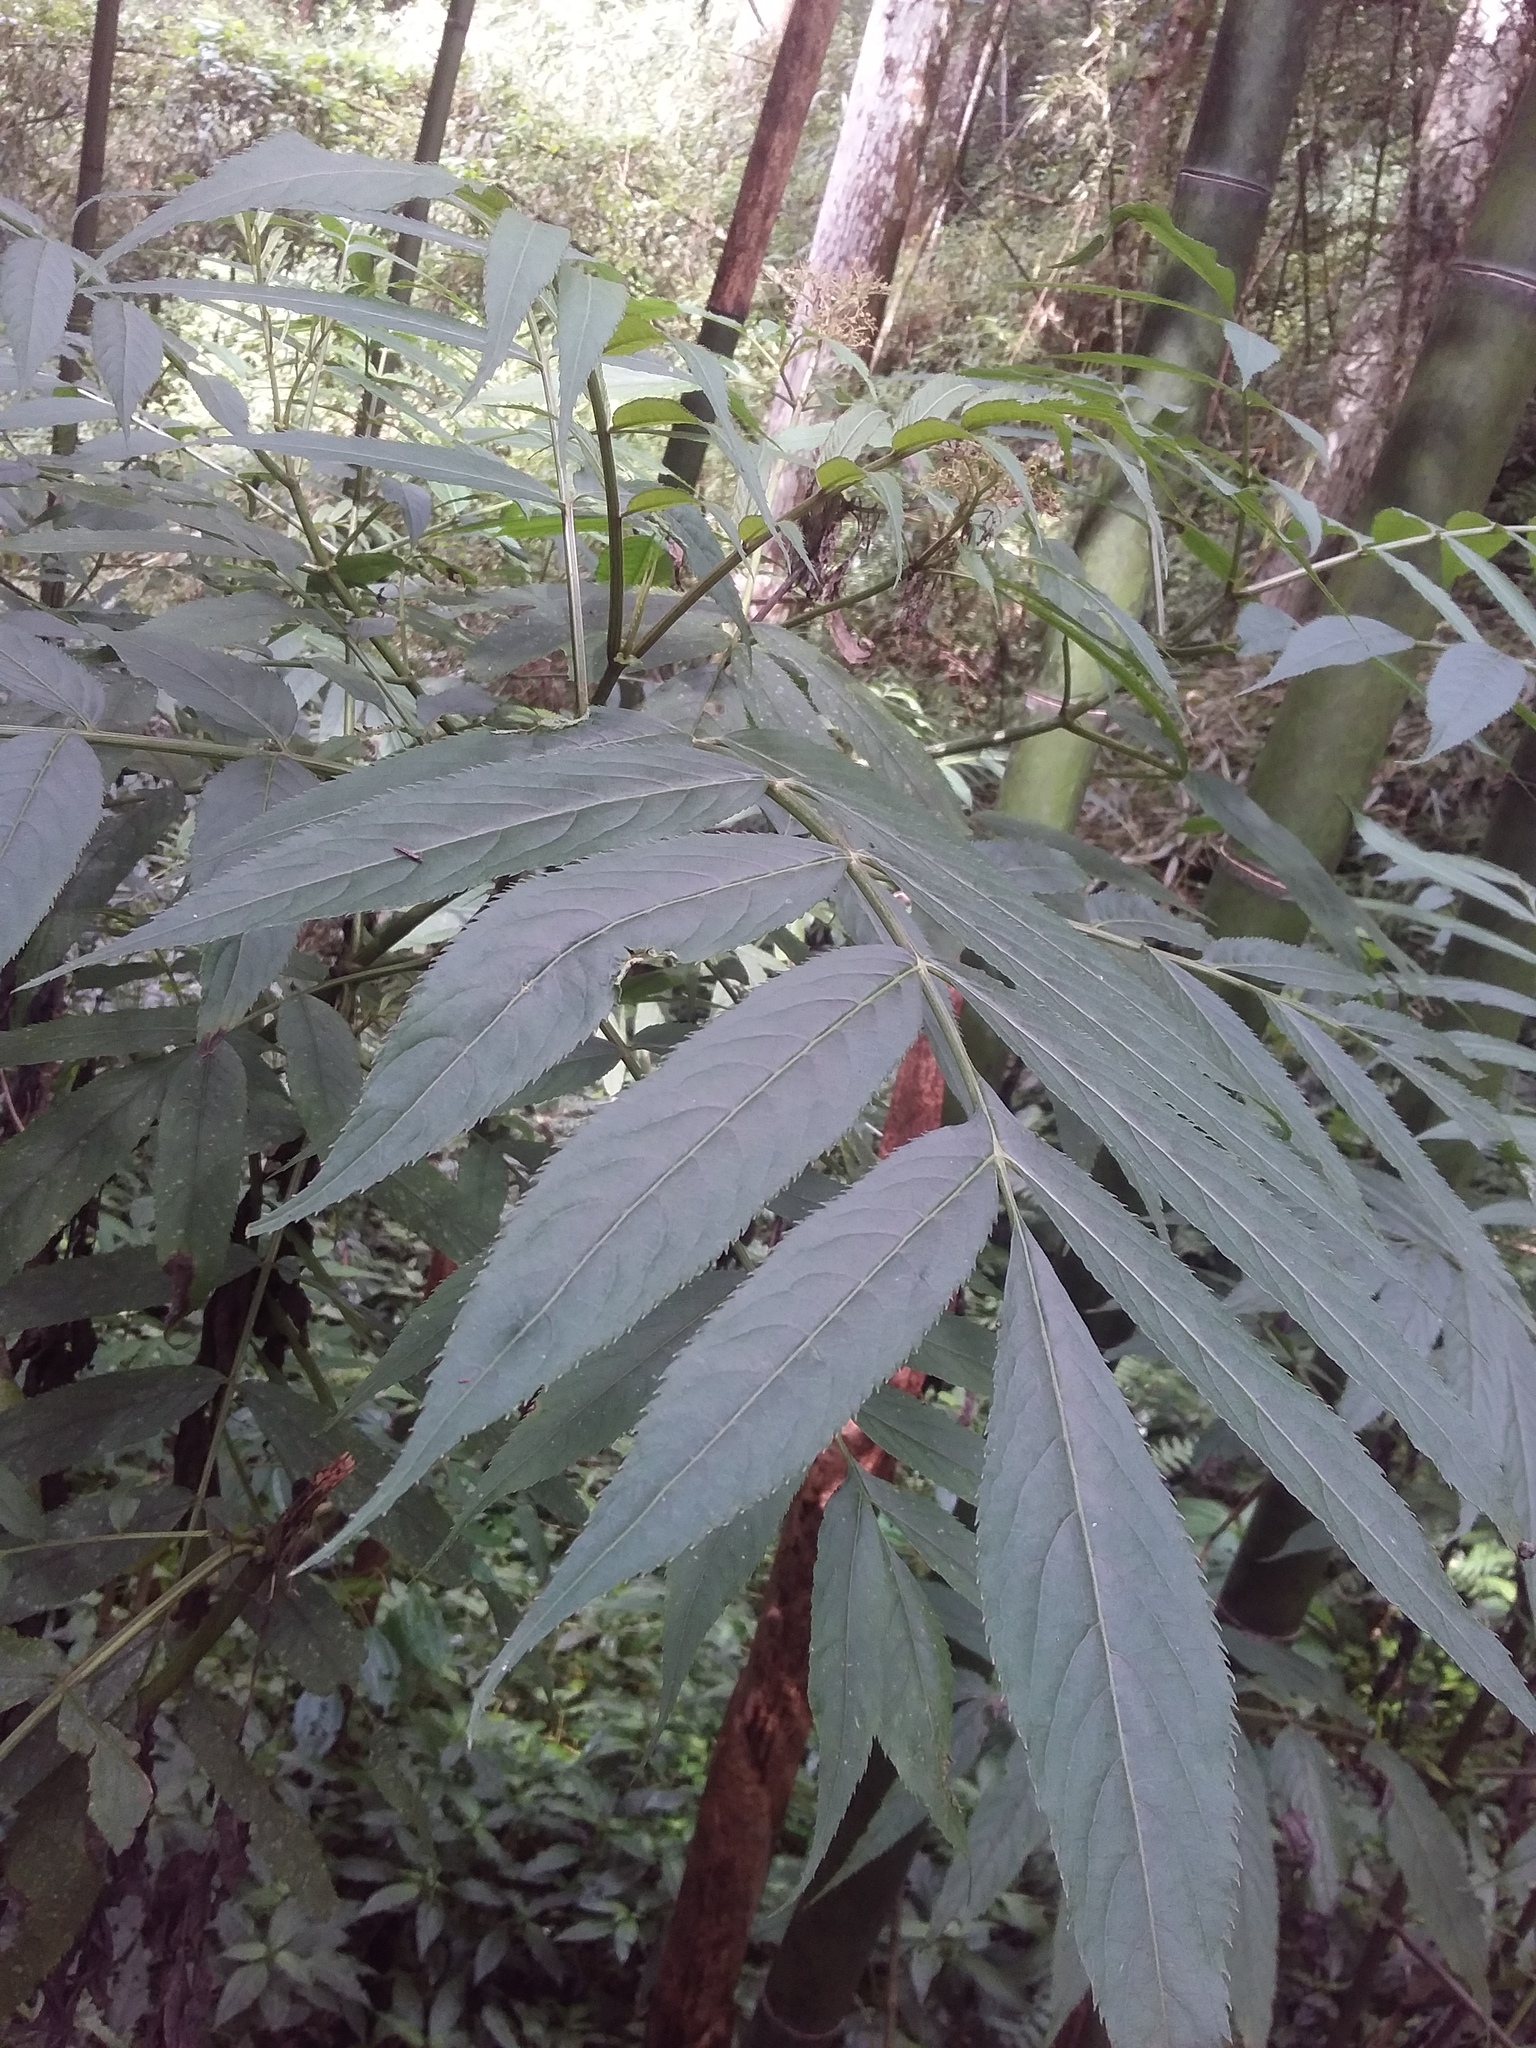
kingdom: Plantae
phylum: Tracheophyta
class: Magnoliopsida
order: Dipsacales
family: Viburnaceae
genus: Sambucus
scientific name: Sambucus javanica
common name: Chinese elder
